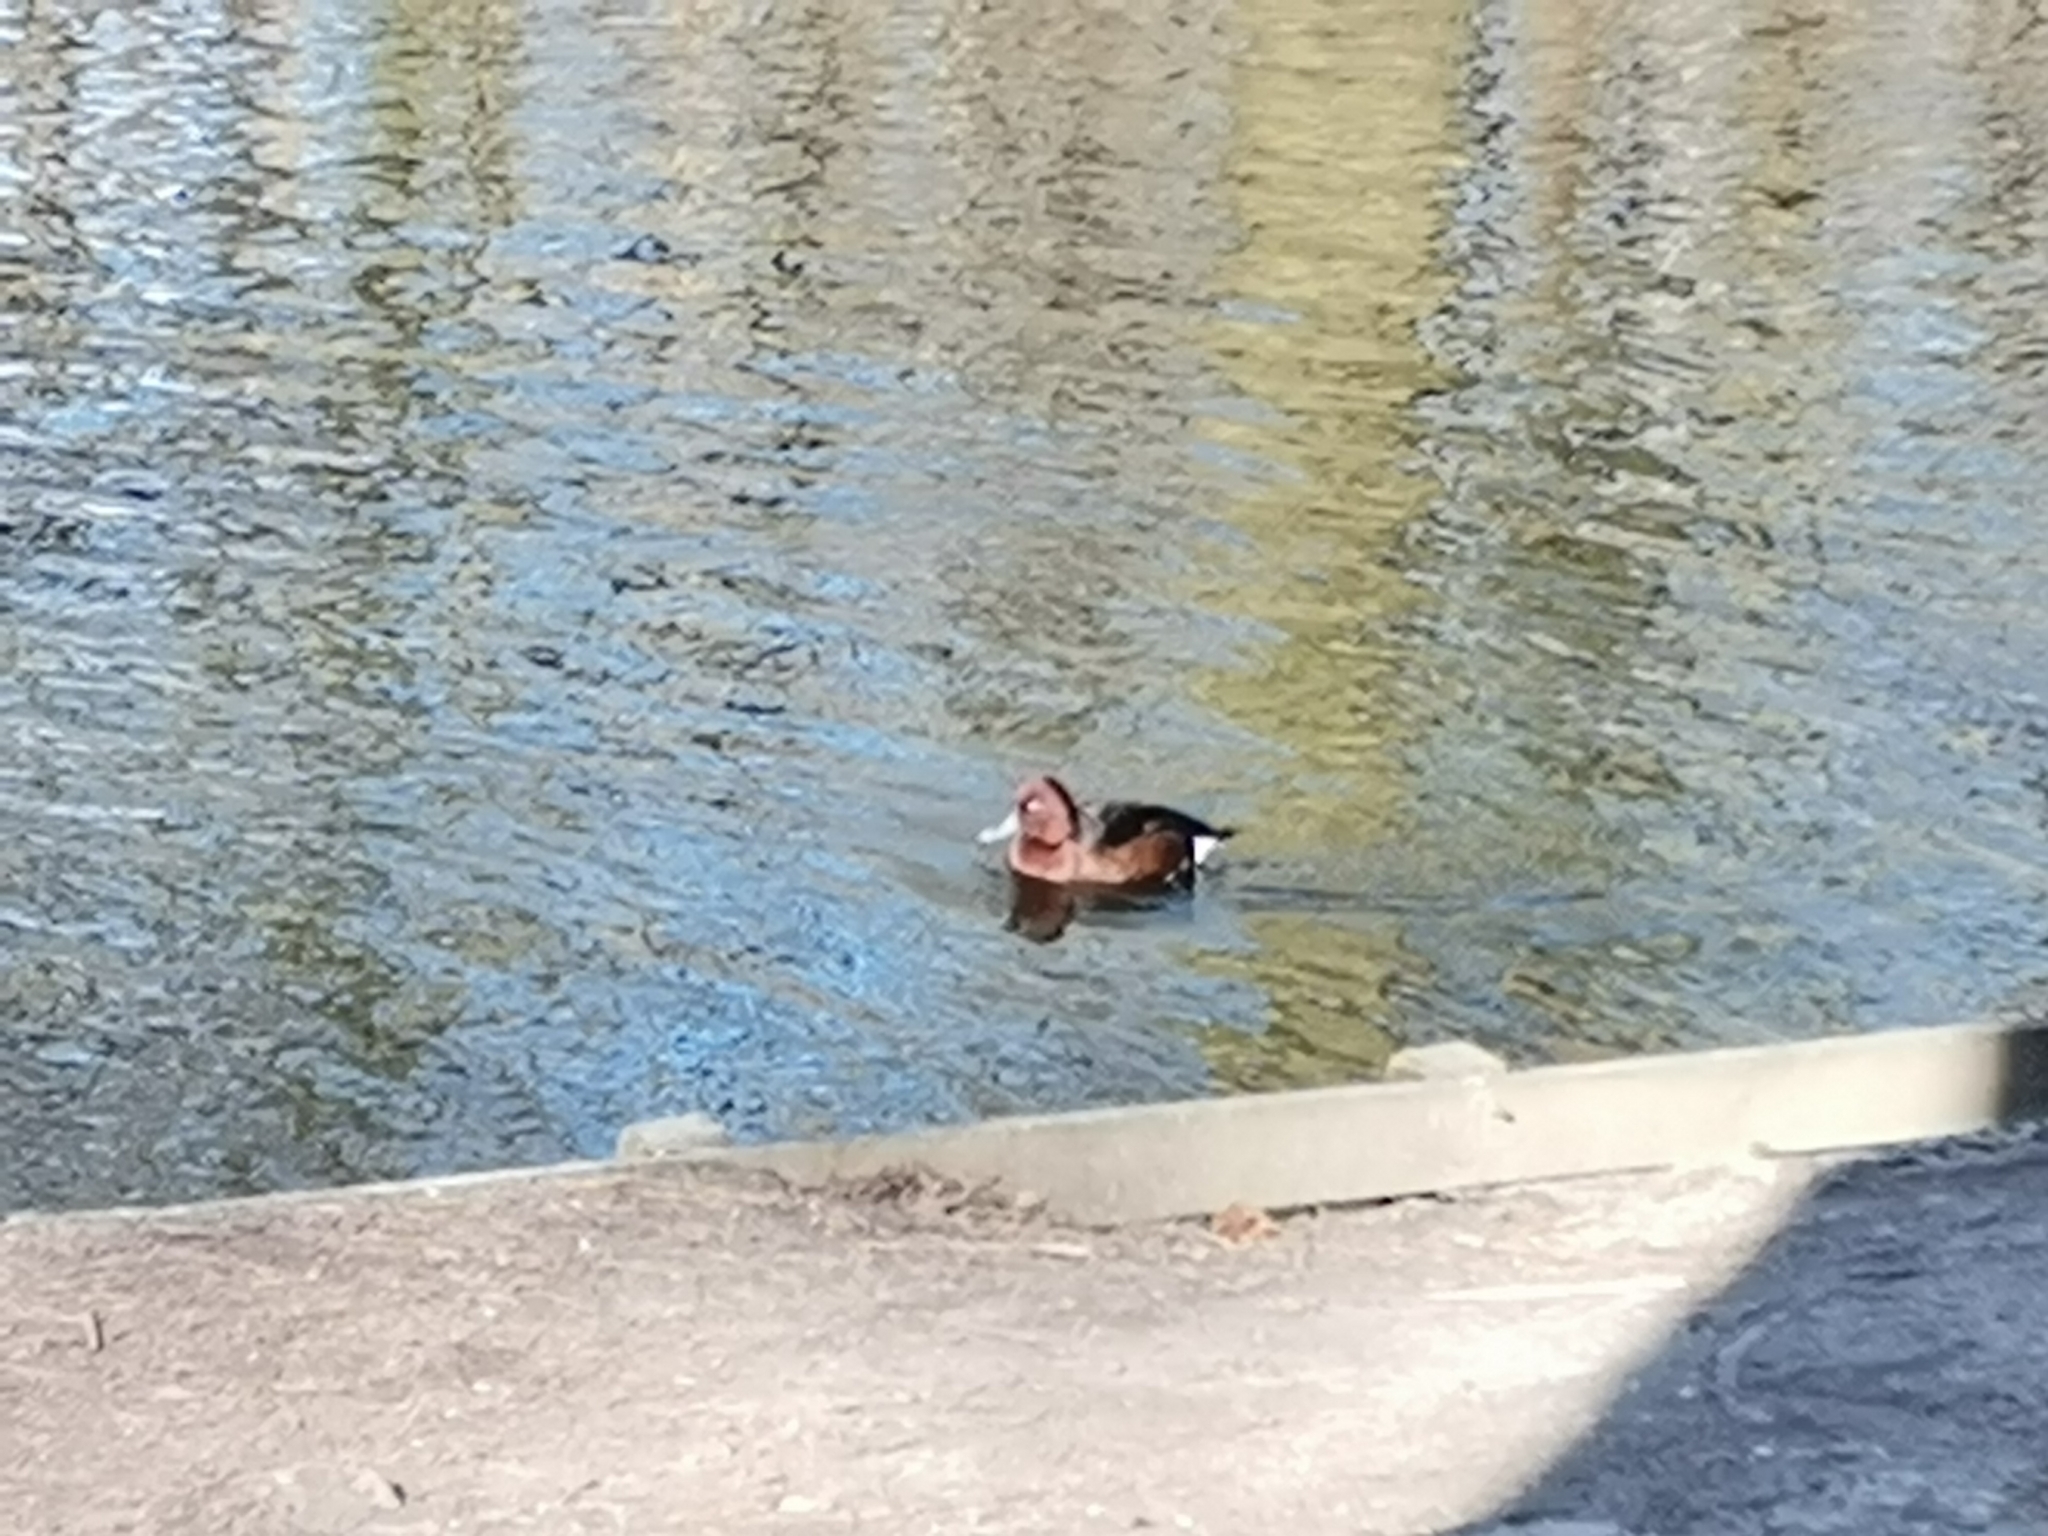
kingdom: Animalia
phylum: Chordata
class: Aves
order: Anseriformes
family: Anatidae
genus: Aix
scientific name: Aix galericulata
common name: Mandarin duck
